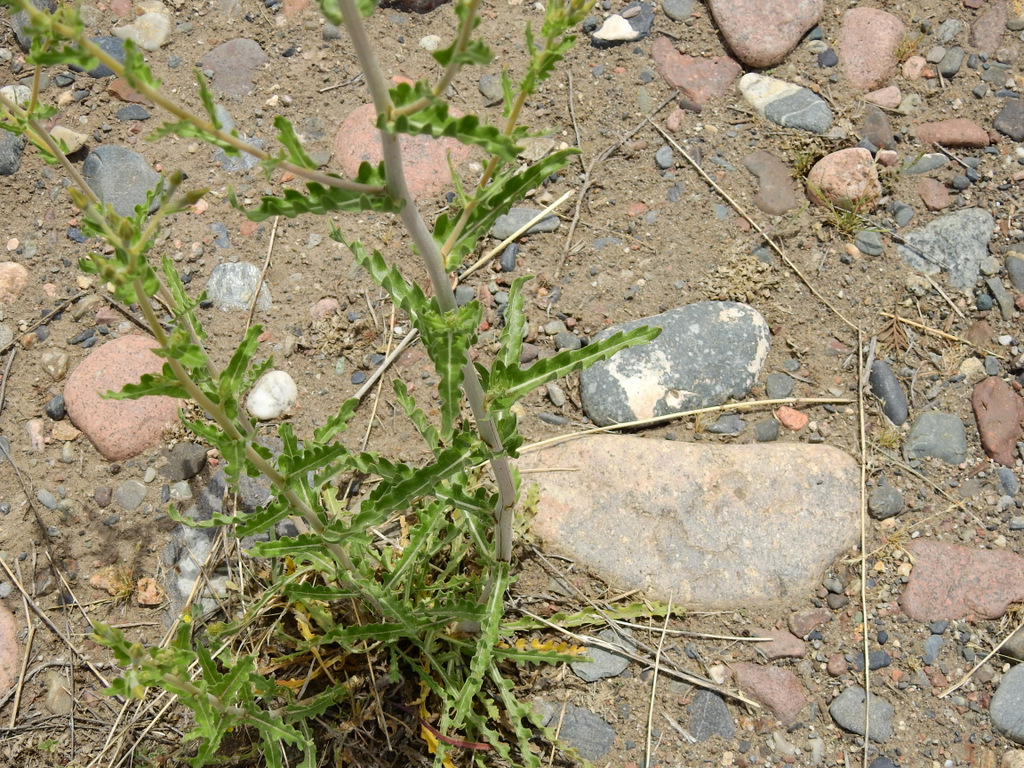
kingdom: Plantae
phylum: Tracheophyta
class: Magnoliopsida
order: Cornales
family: Loasaceae
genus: Mentzelia
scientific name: Mentzelia albescens
